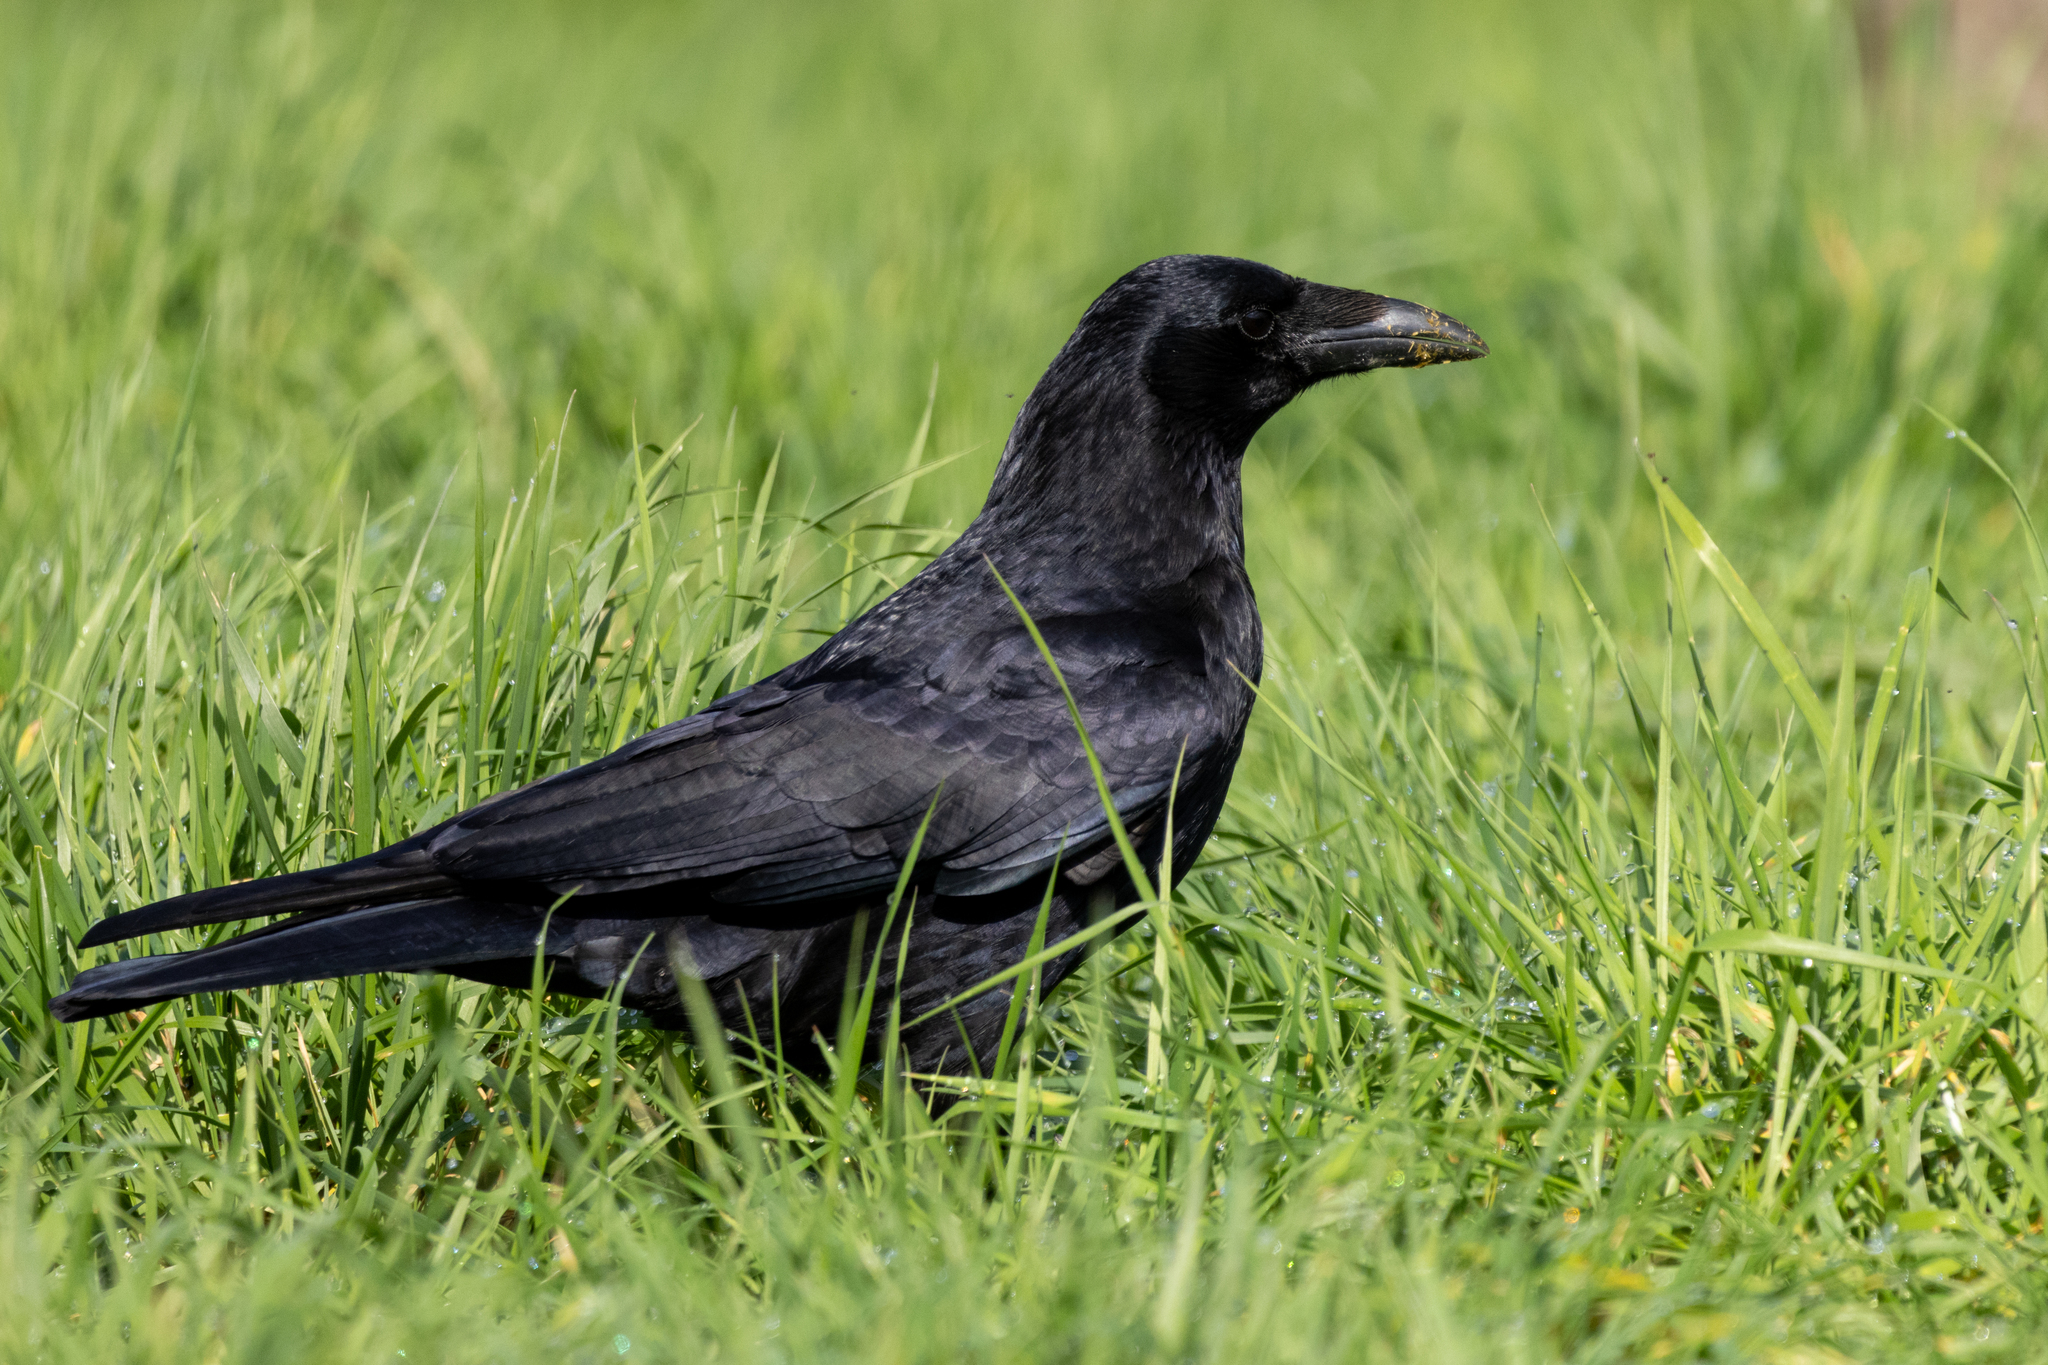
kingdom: Animalia
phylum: Chordata
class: Aves
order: Passeriformes
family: Corvidae
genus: Corvus
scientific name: Corvus corone
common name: Carrion crow
